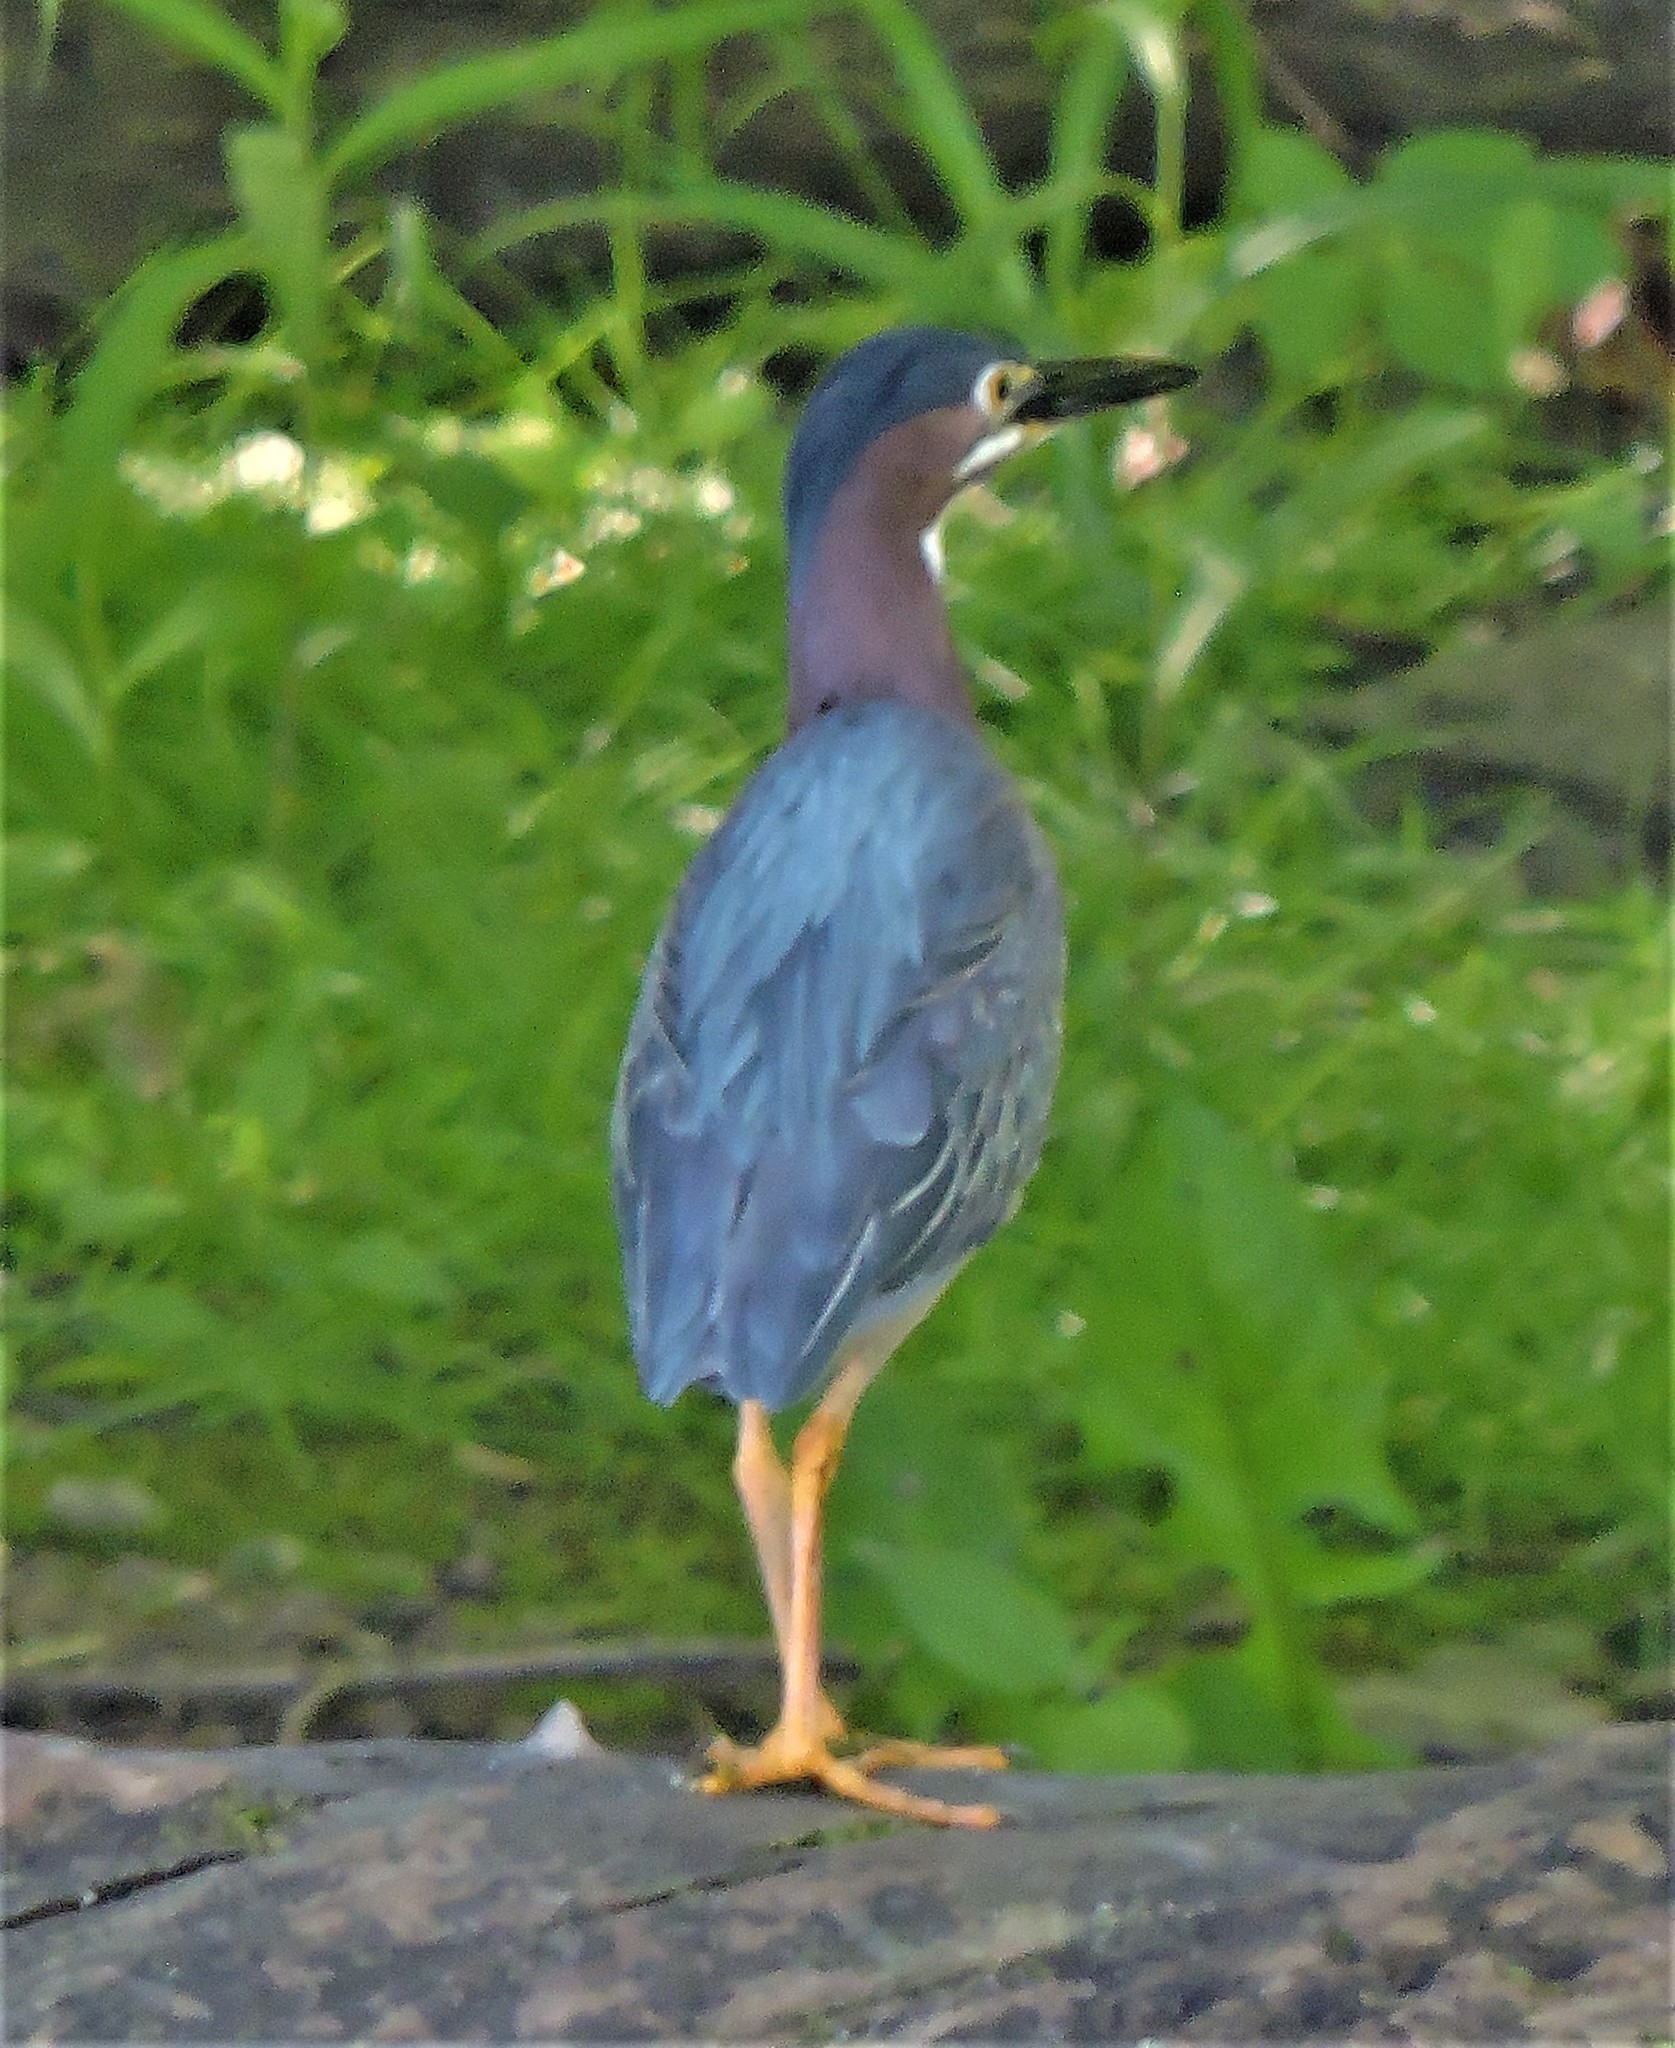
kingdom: Animalia
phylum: Chordata
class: Aves
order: Pelecaniformes
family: Ardeidae
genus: Butorides
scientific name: Butorides virescens
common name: Green heron
